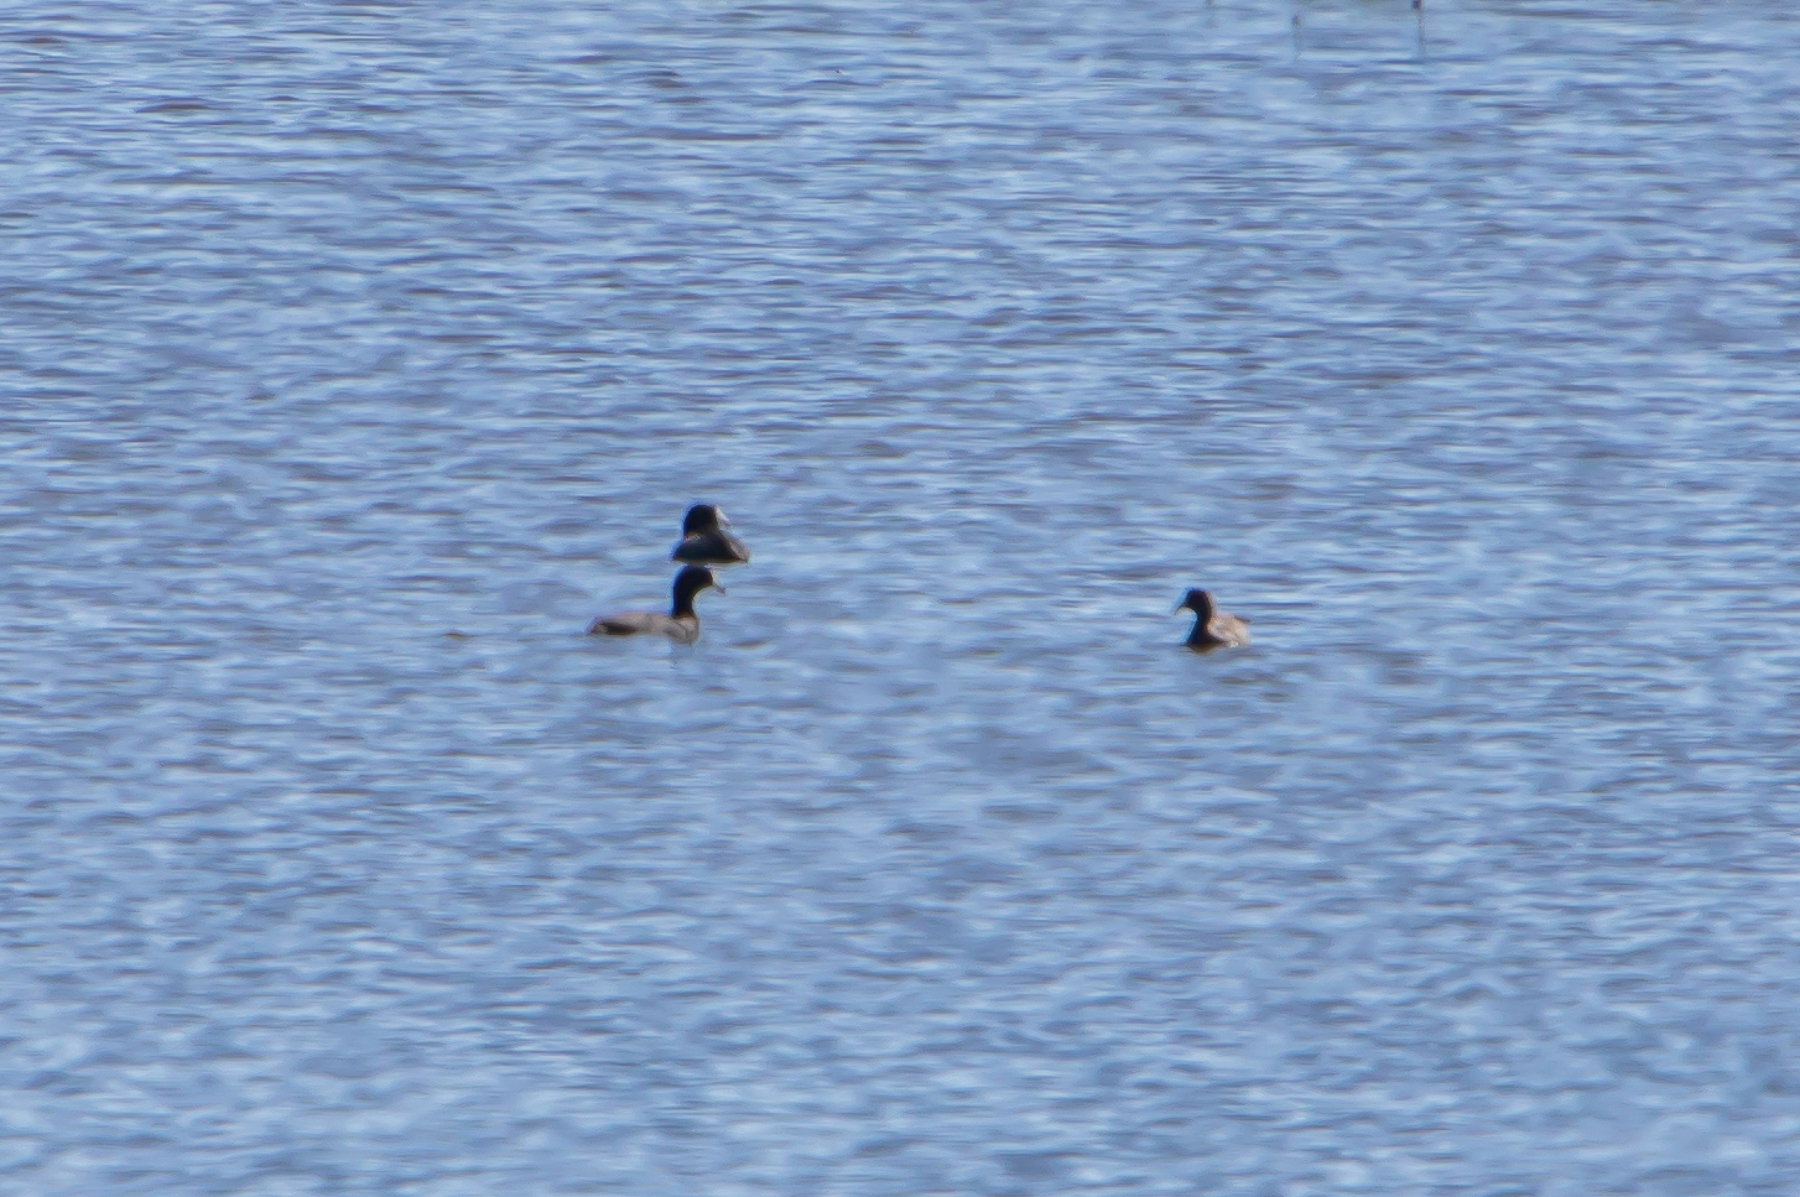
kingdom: Animalia
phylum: Chordata
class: Aves
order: Gruiformes
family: Rallidae
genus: Fulica
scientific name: Fulica americana
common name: American coot
